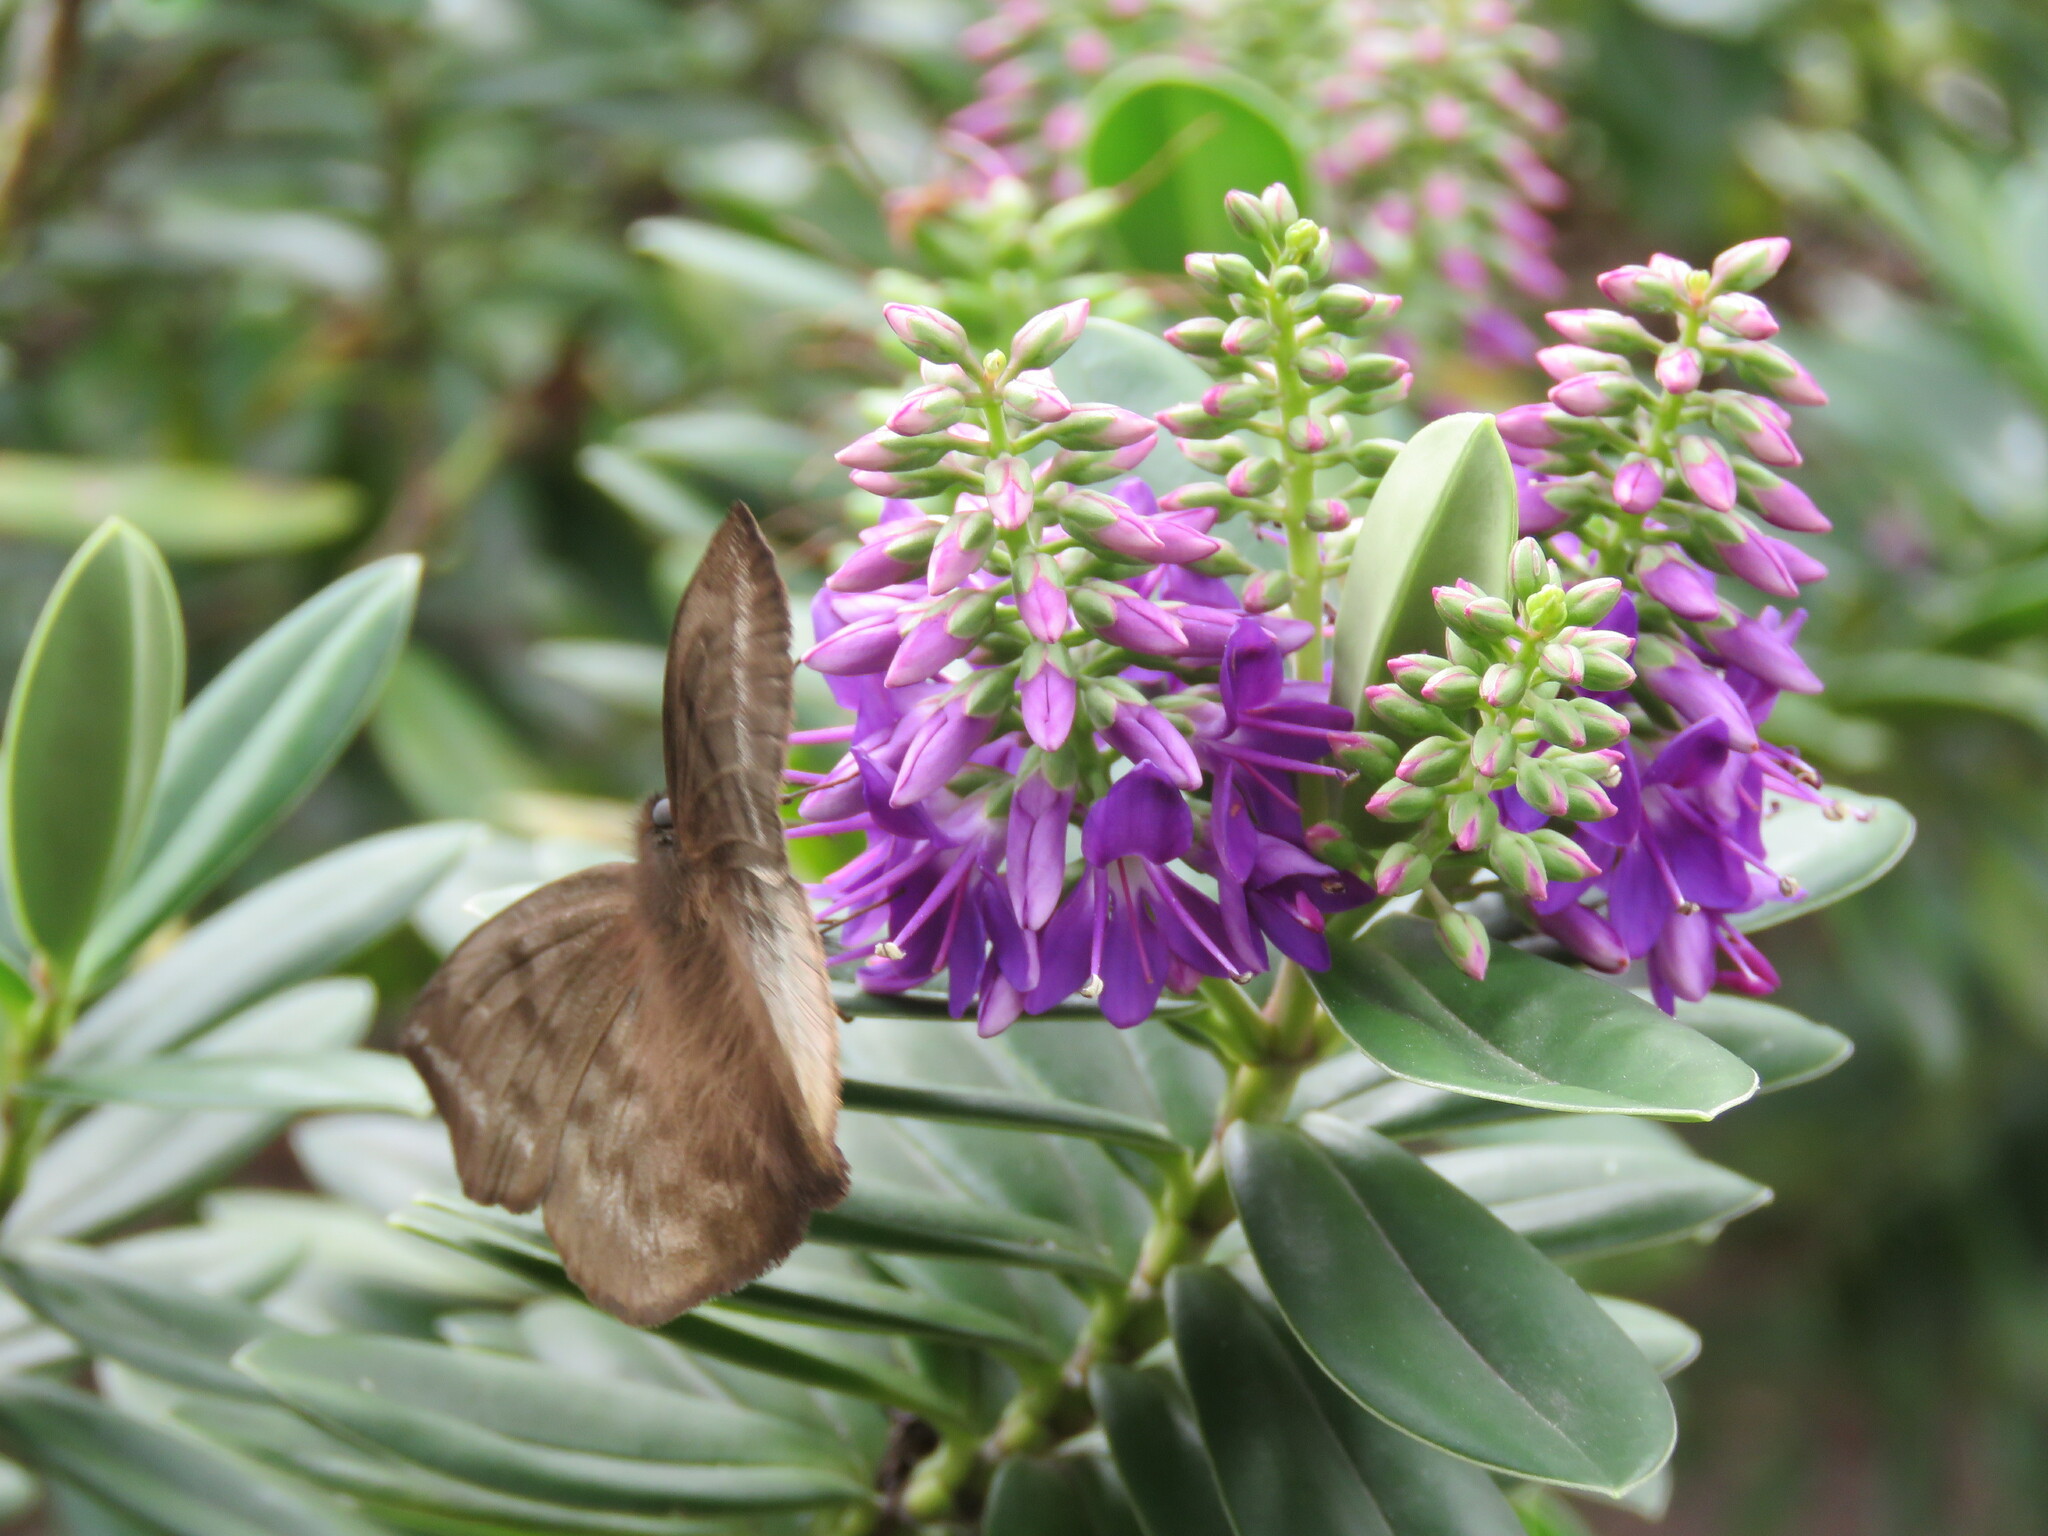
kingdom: Animalia
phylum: Arthropoda
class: Insecta
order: Lepidoptera
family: Hesperiidae
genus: Achlyodes
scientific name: Achlyodes pallida
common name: Pale sicklewing
